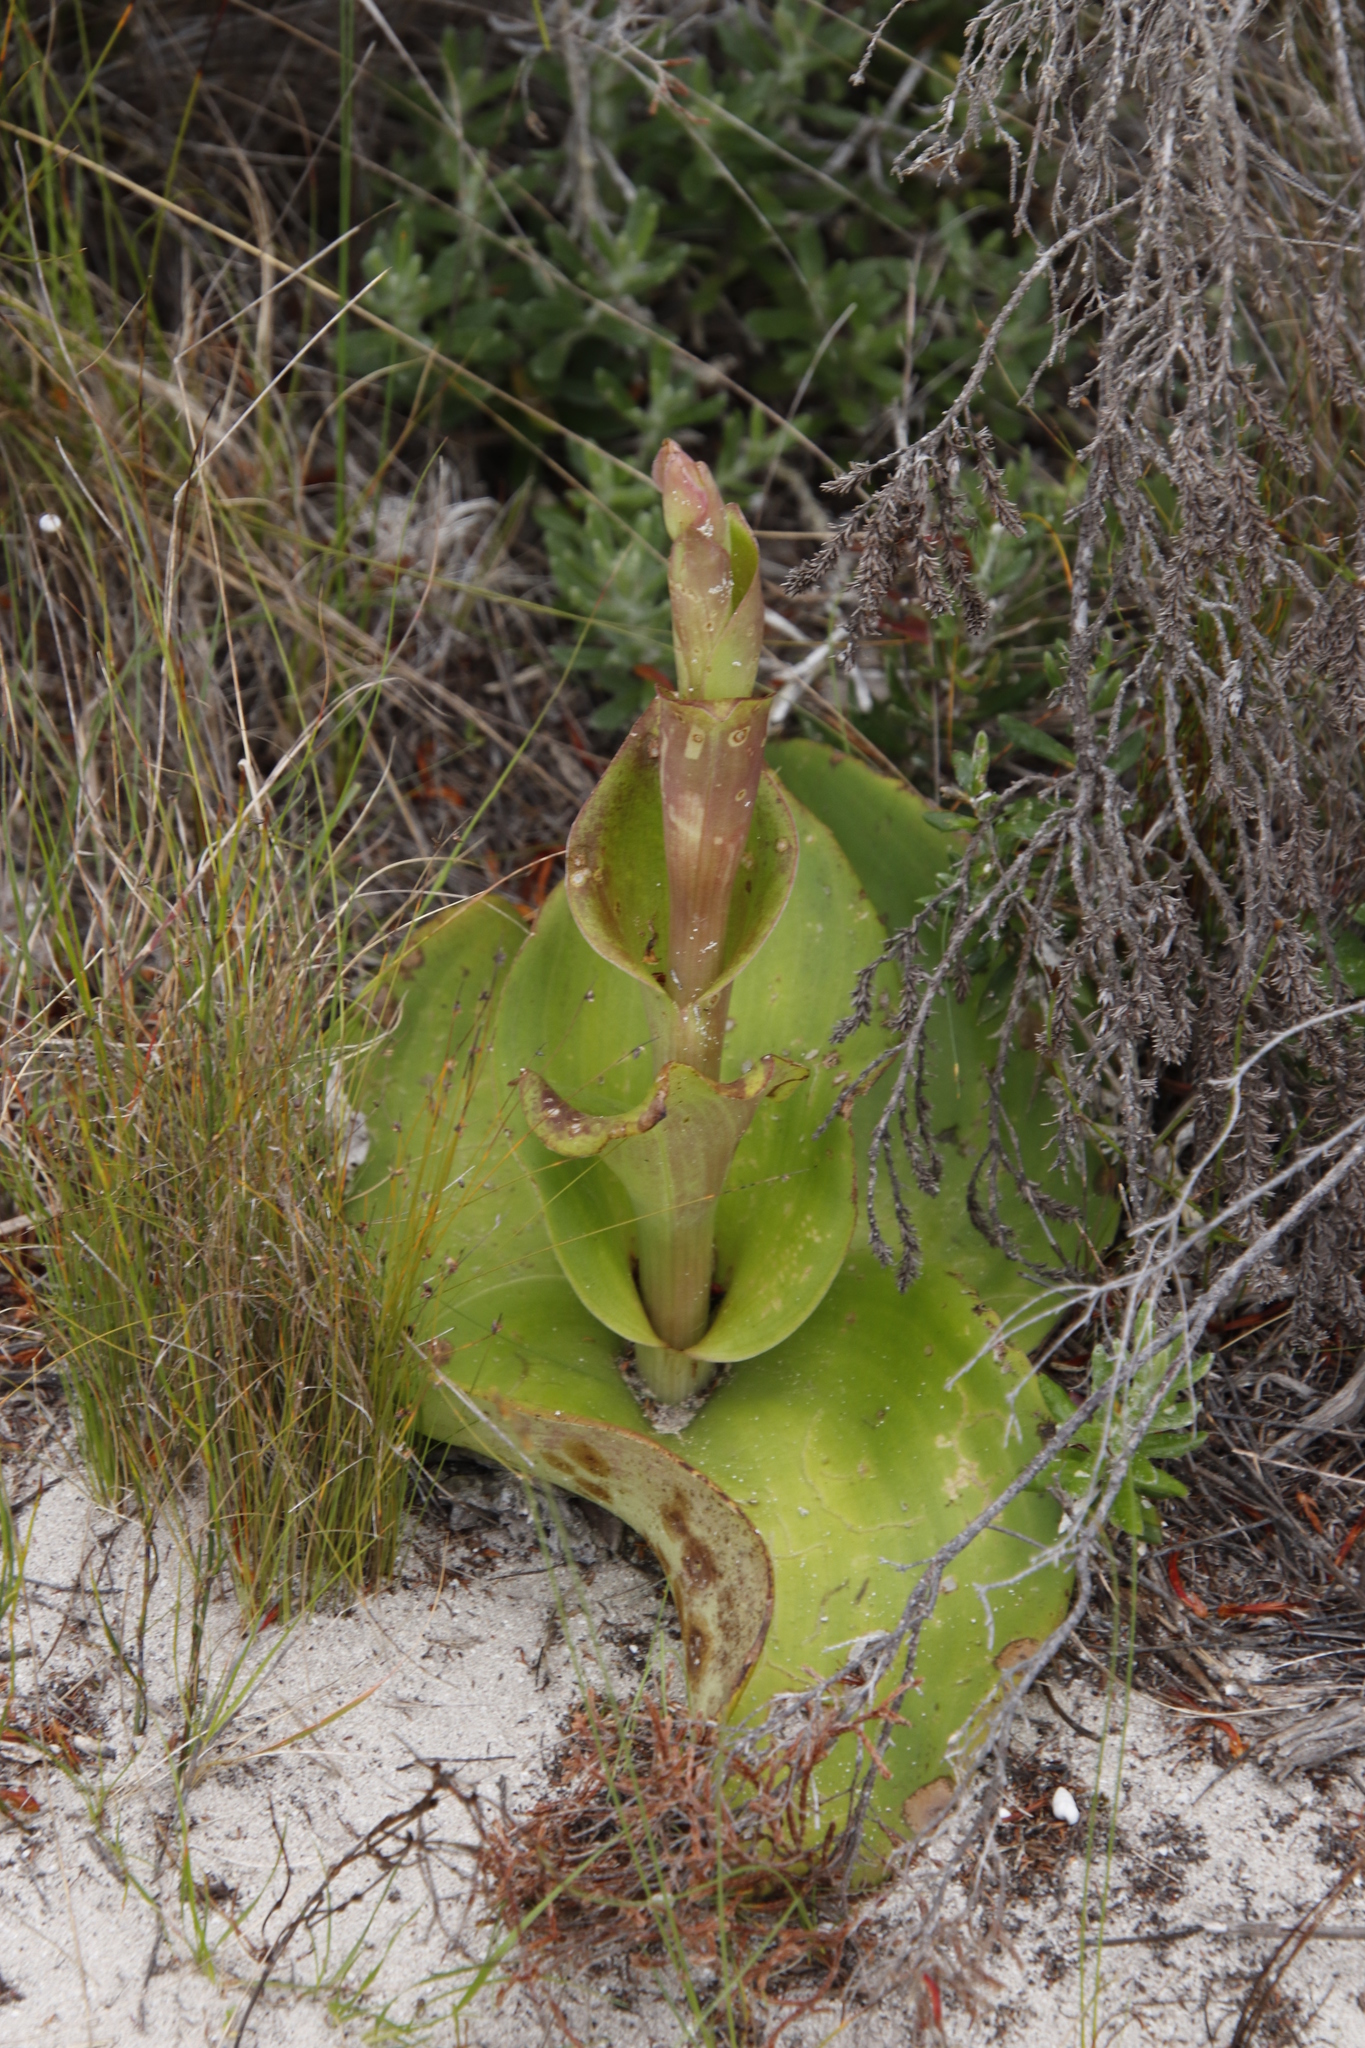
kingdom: Plantae
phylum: Tracheophyta
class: Liliopsida
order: Asparagales
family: Orchidaceae
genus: Satyrium
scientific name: Satyrium carneum
